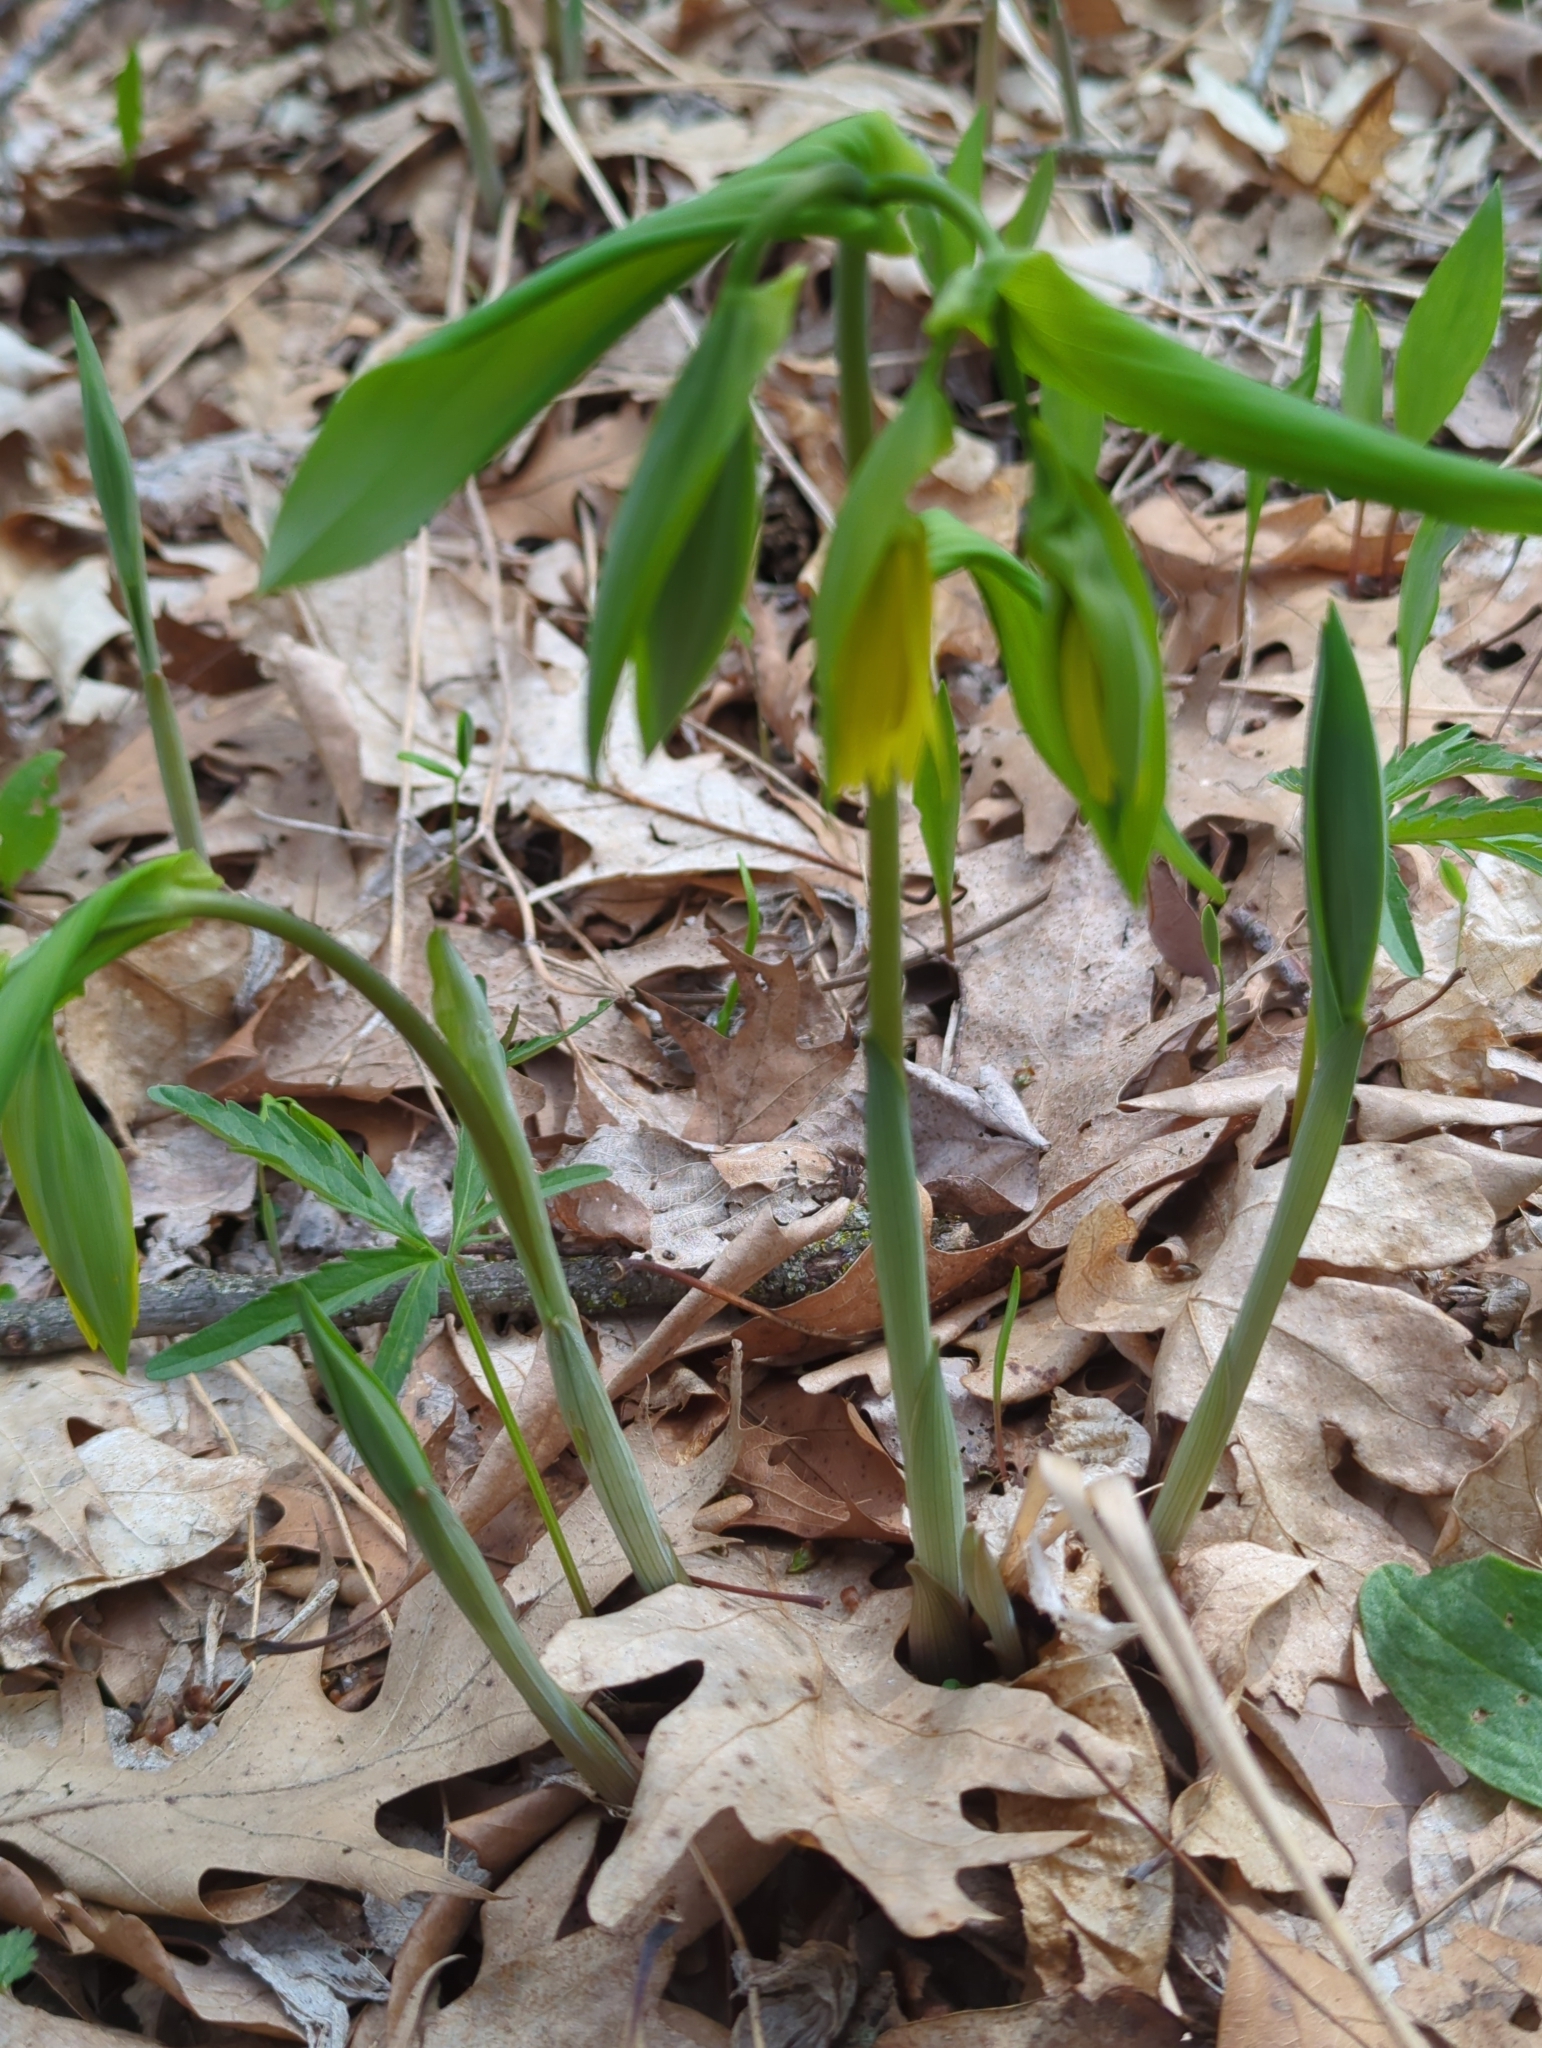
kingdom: Plantae
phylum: Tracheophyta
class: Liliopsida
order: Liliales
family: Colchicaceae
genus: Uvularia
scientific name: Uvularia grandiflora
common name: Bellwort
